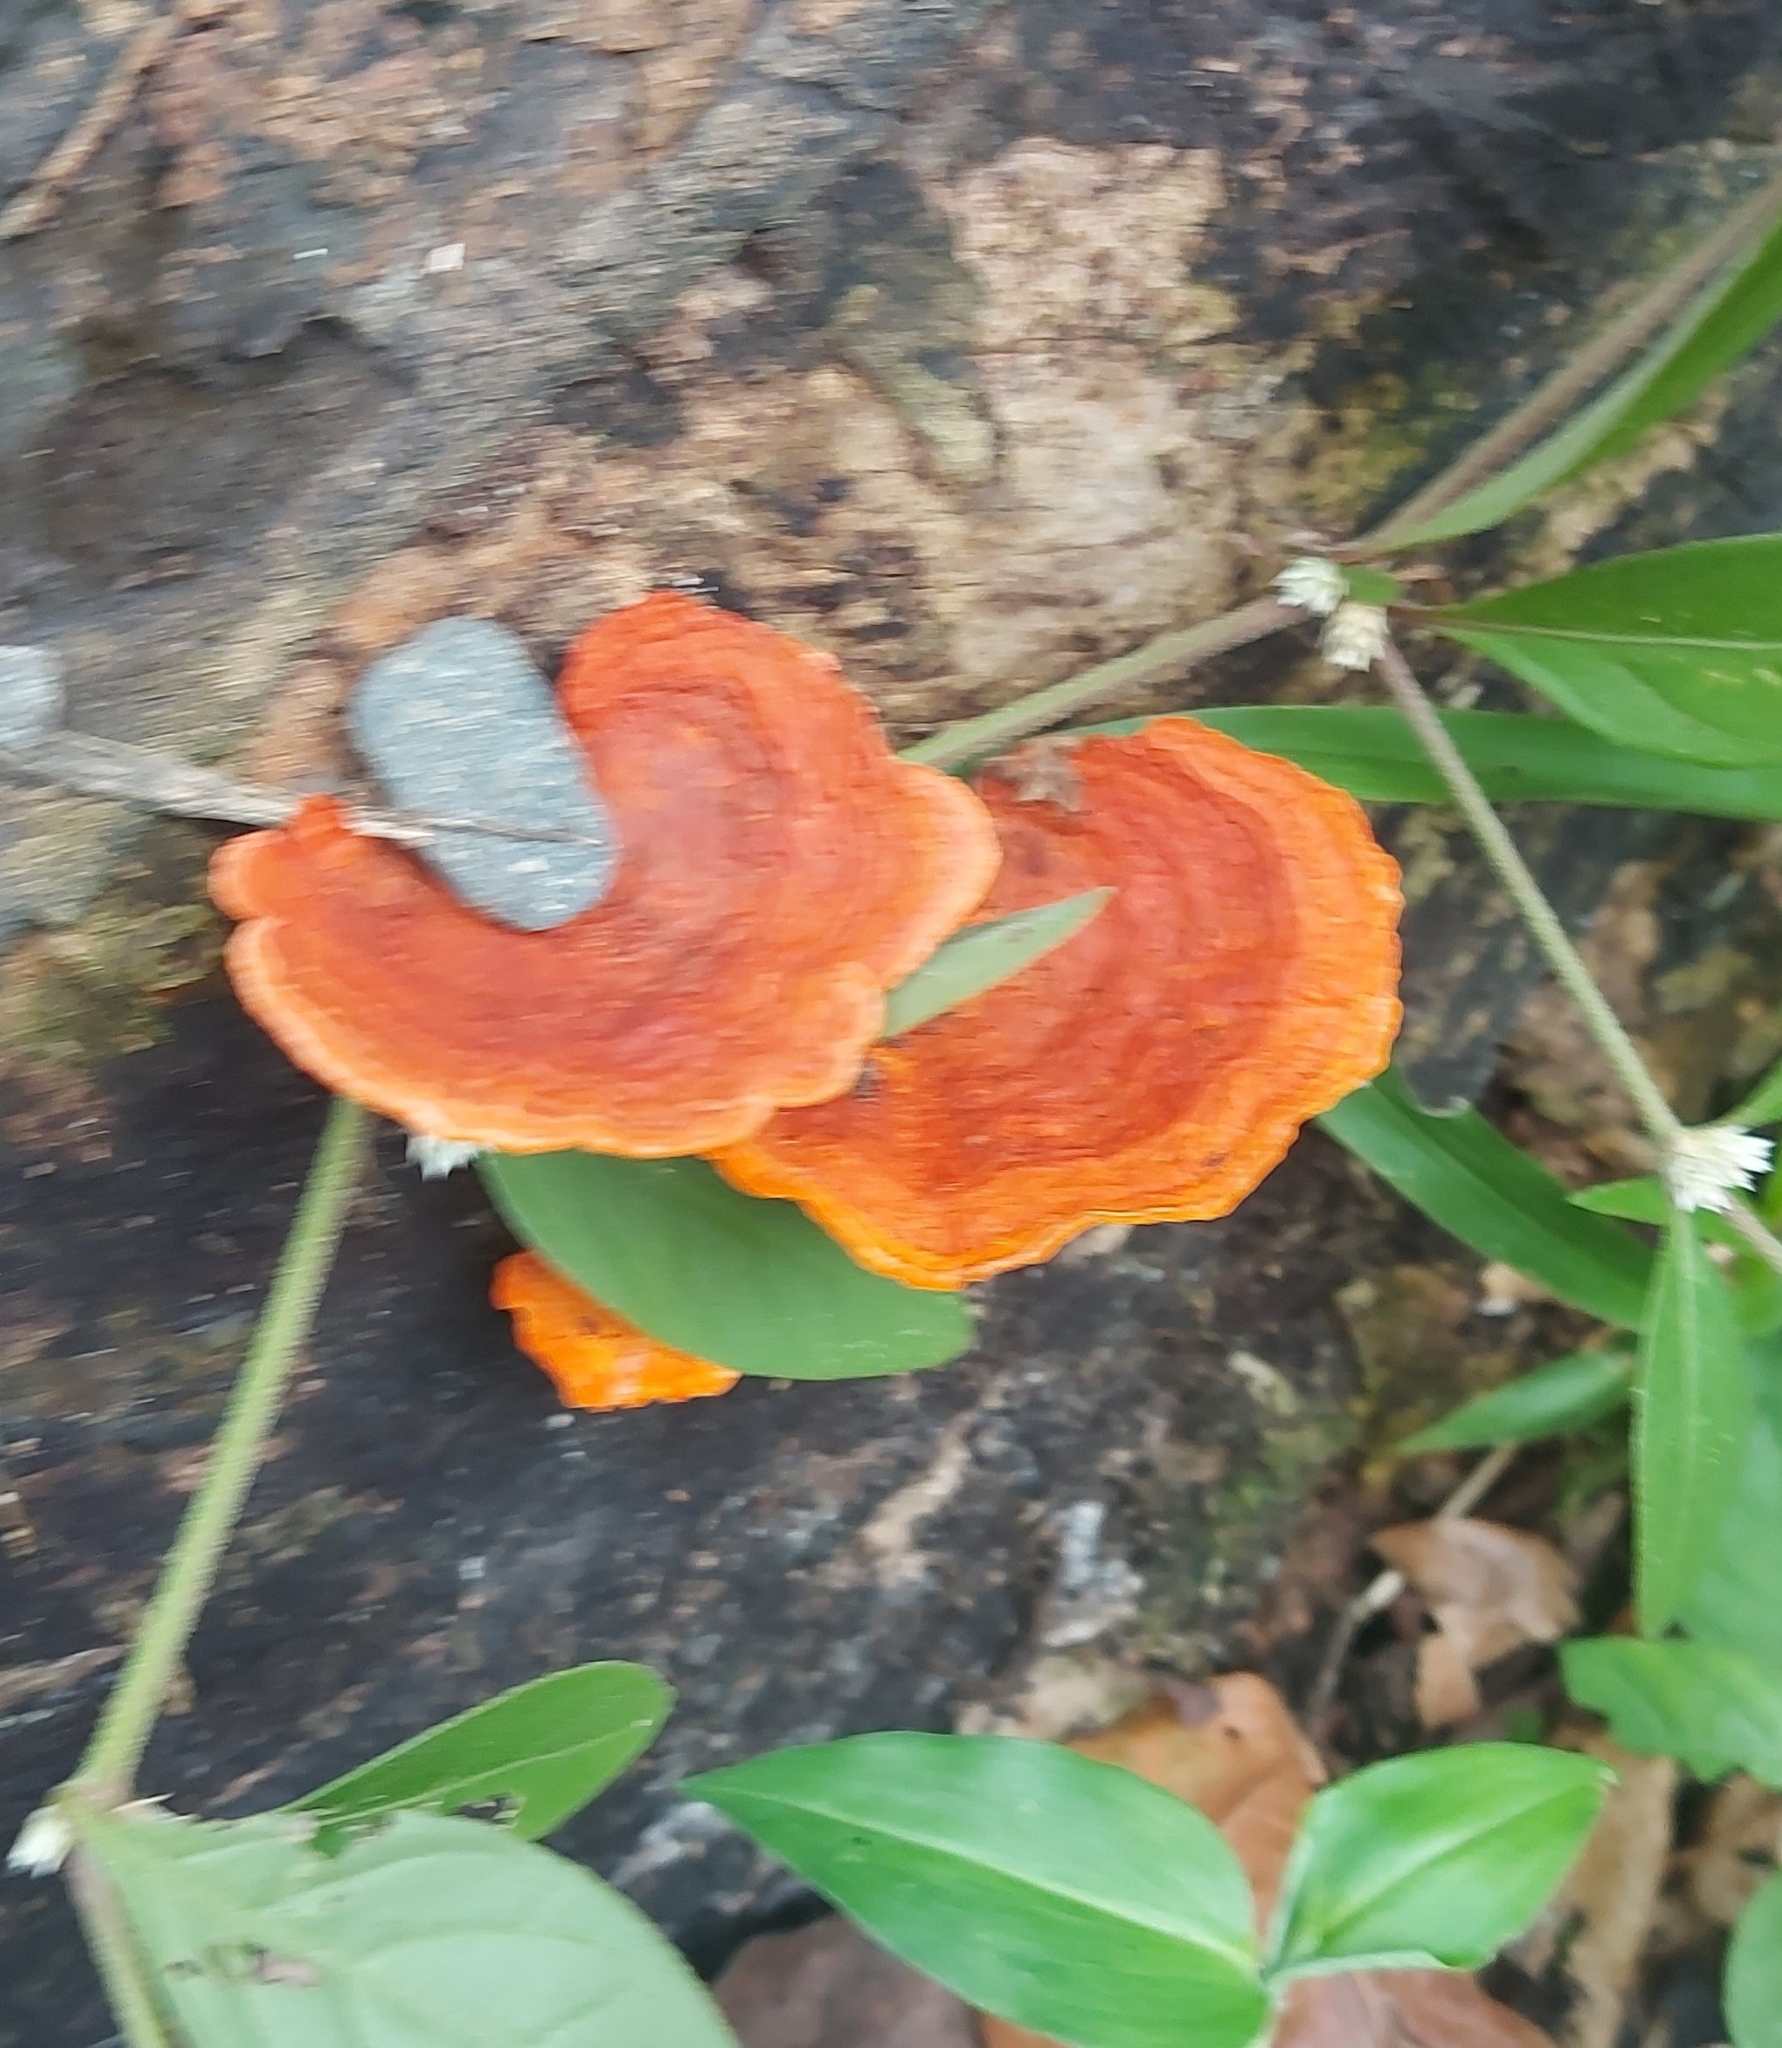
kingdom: Fungi
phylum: Basidiomycota
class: Agaricomycetes
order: Polyporales
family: Polyporaceae
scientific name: Polyporaceae
